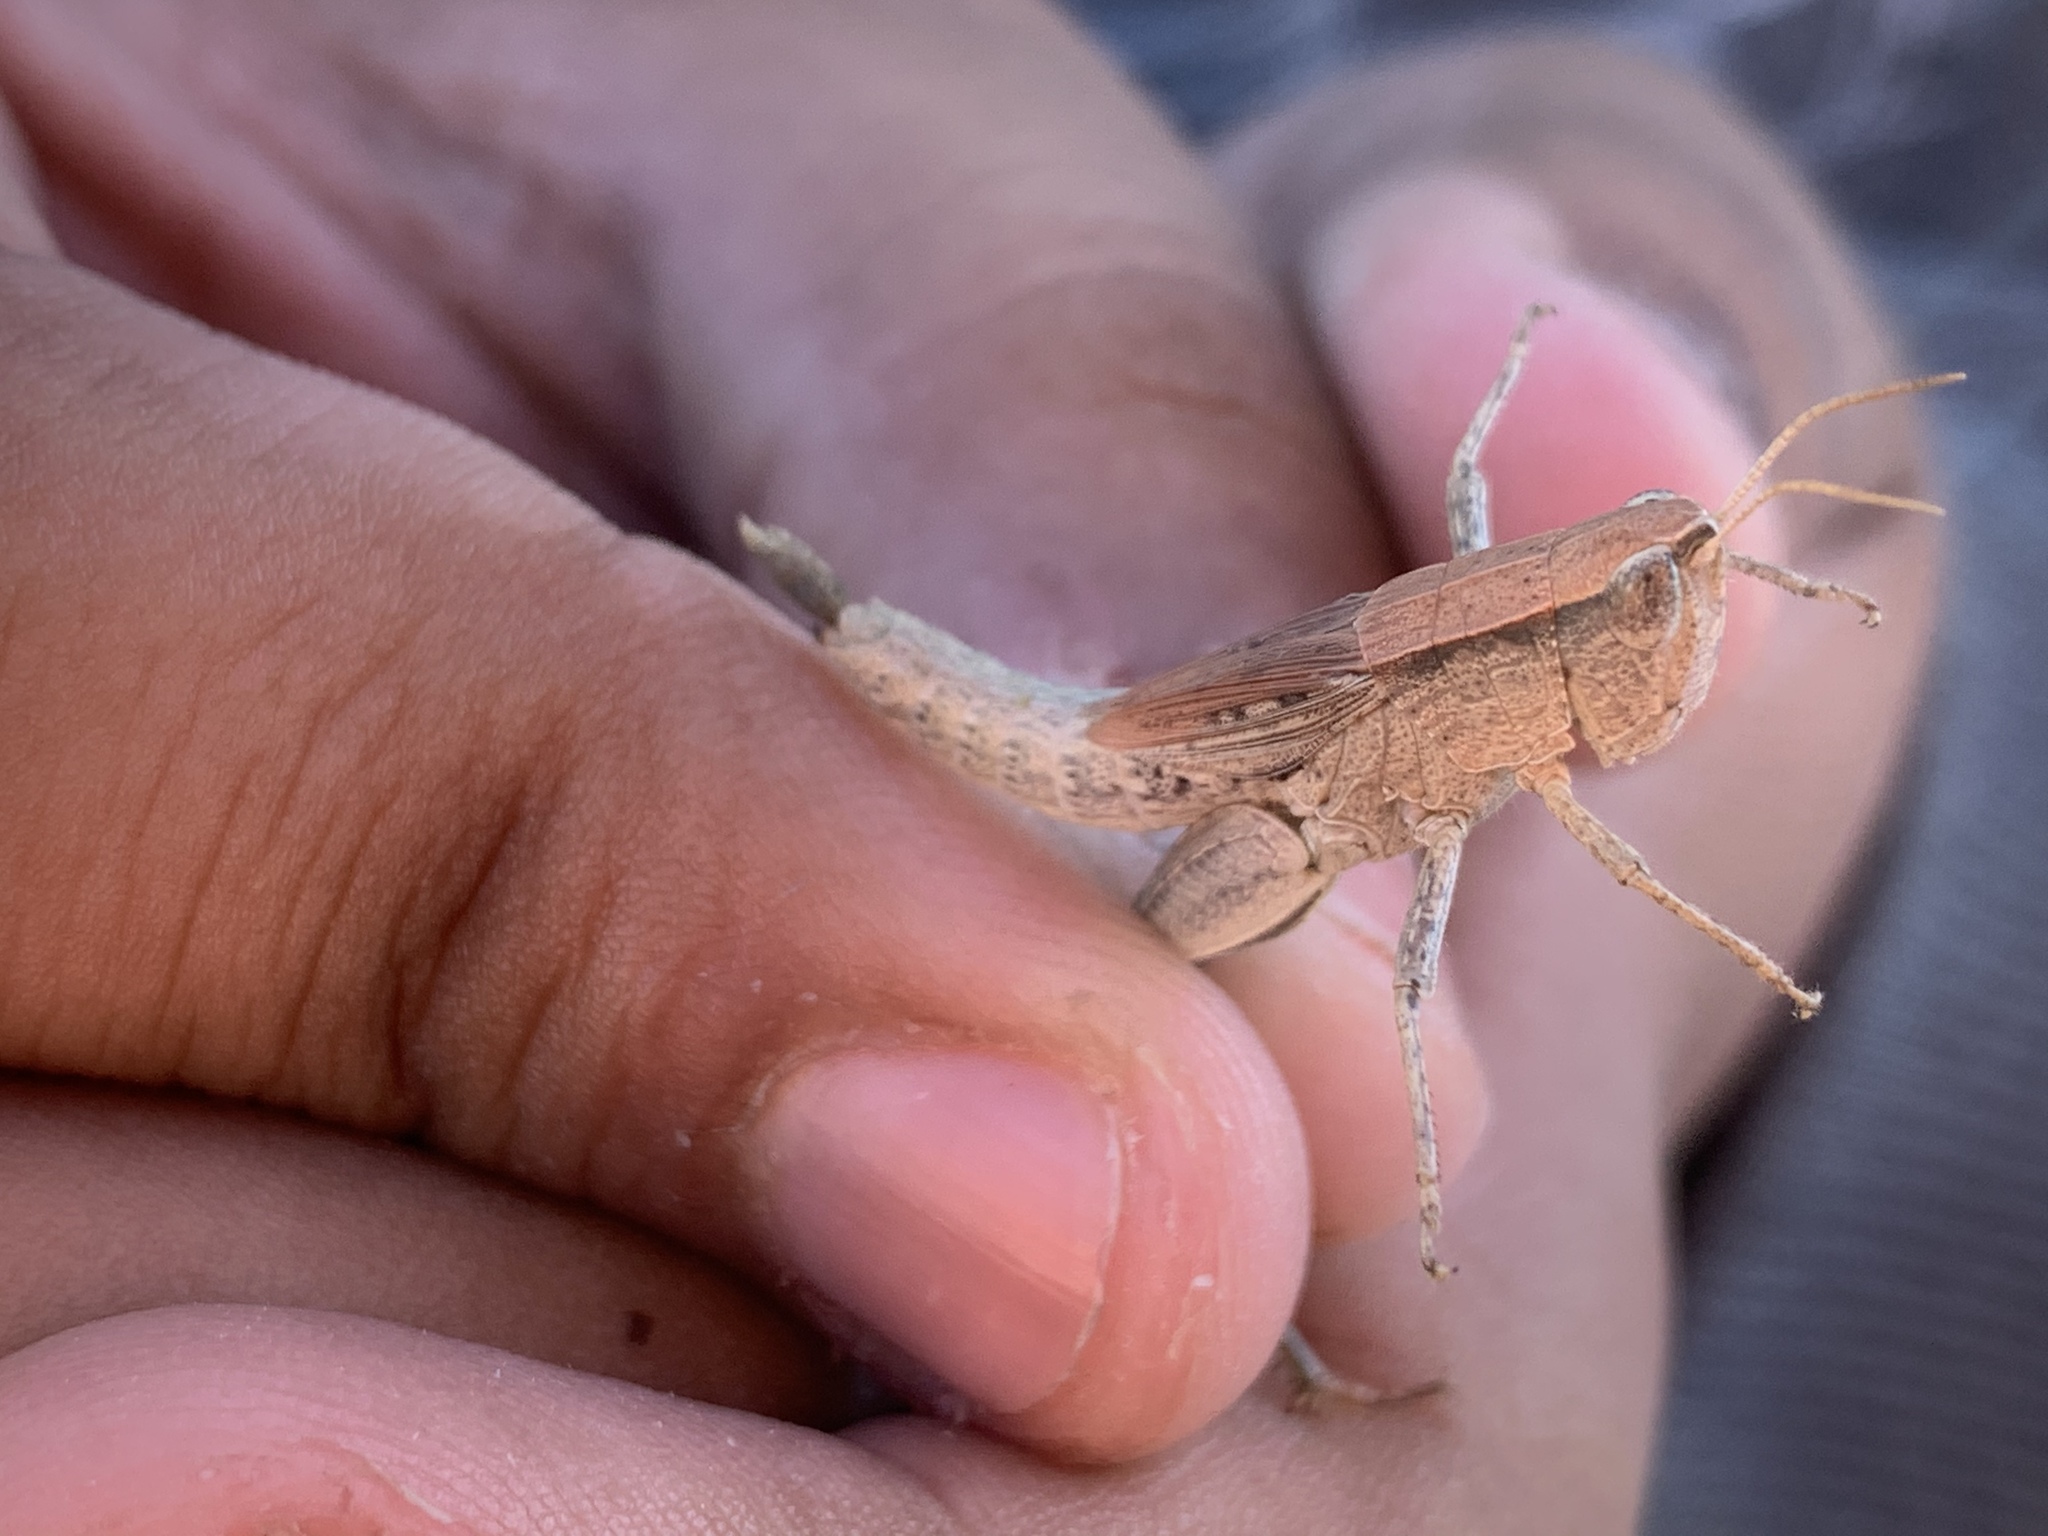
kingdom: Animalia
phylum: Arthropoda
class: Insecta
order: Orthoptera
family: Acrididae
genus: Dichromorpha
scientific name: Dichromorpha viridis
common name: Short-winged green grasshopper
